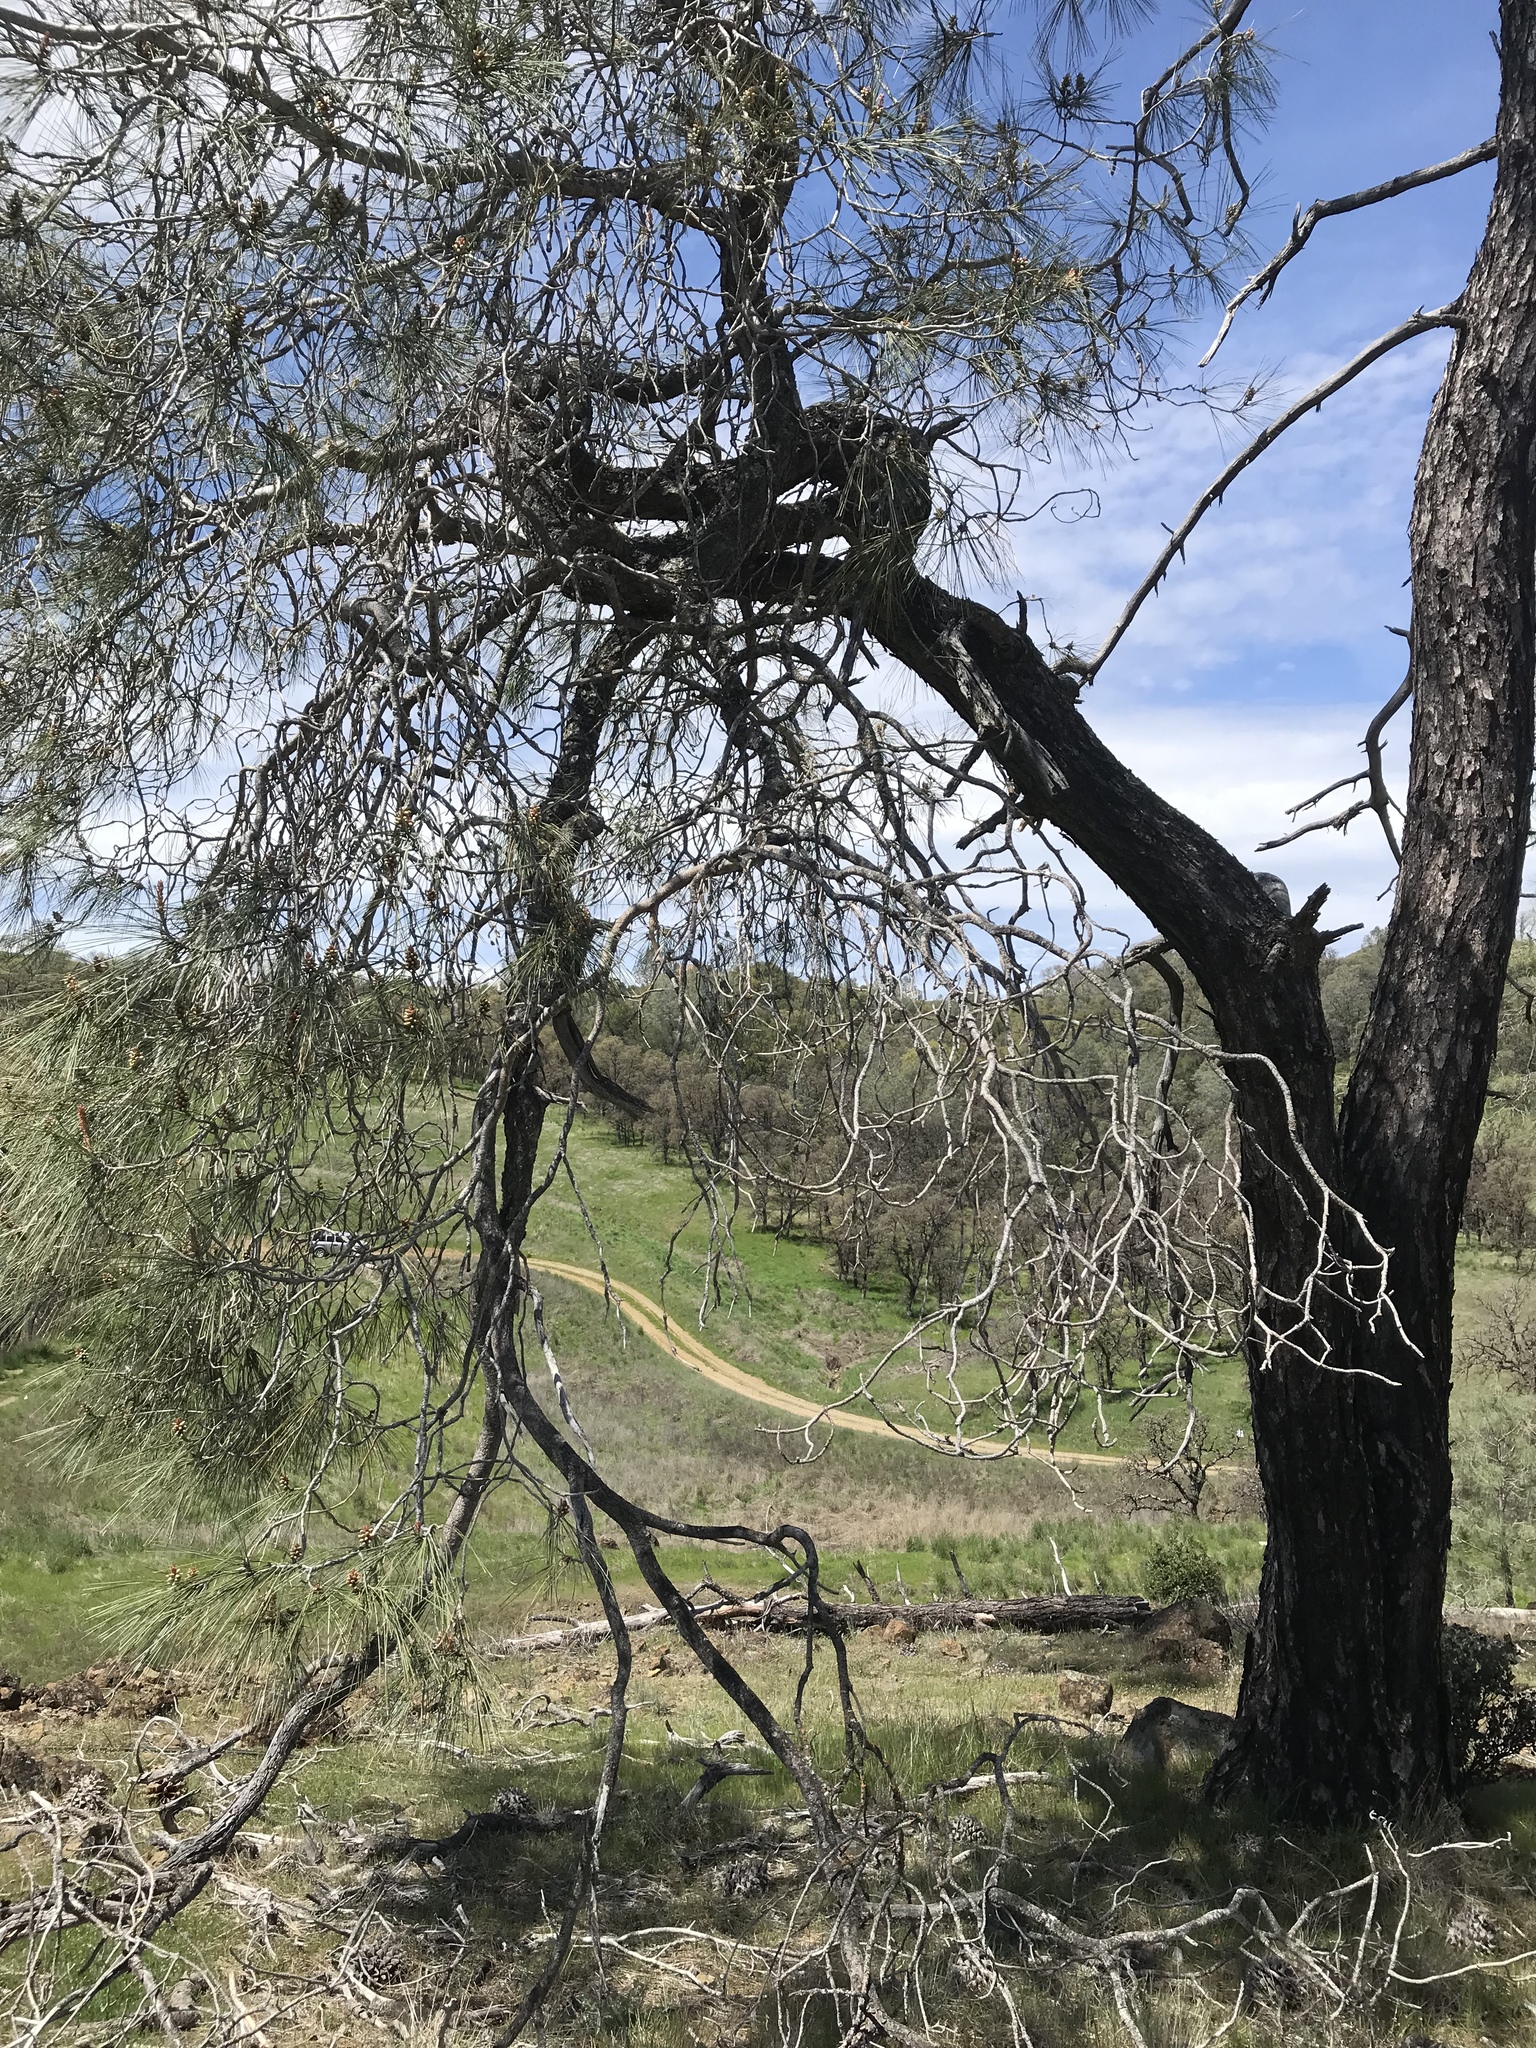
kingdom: Plantae
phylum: Tracheophyta
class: Pinopsida
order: Pinales
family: Pinaceae
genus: Pinus
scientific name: Pinus sabiniana
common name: Bull pine
